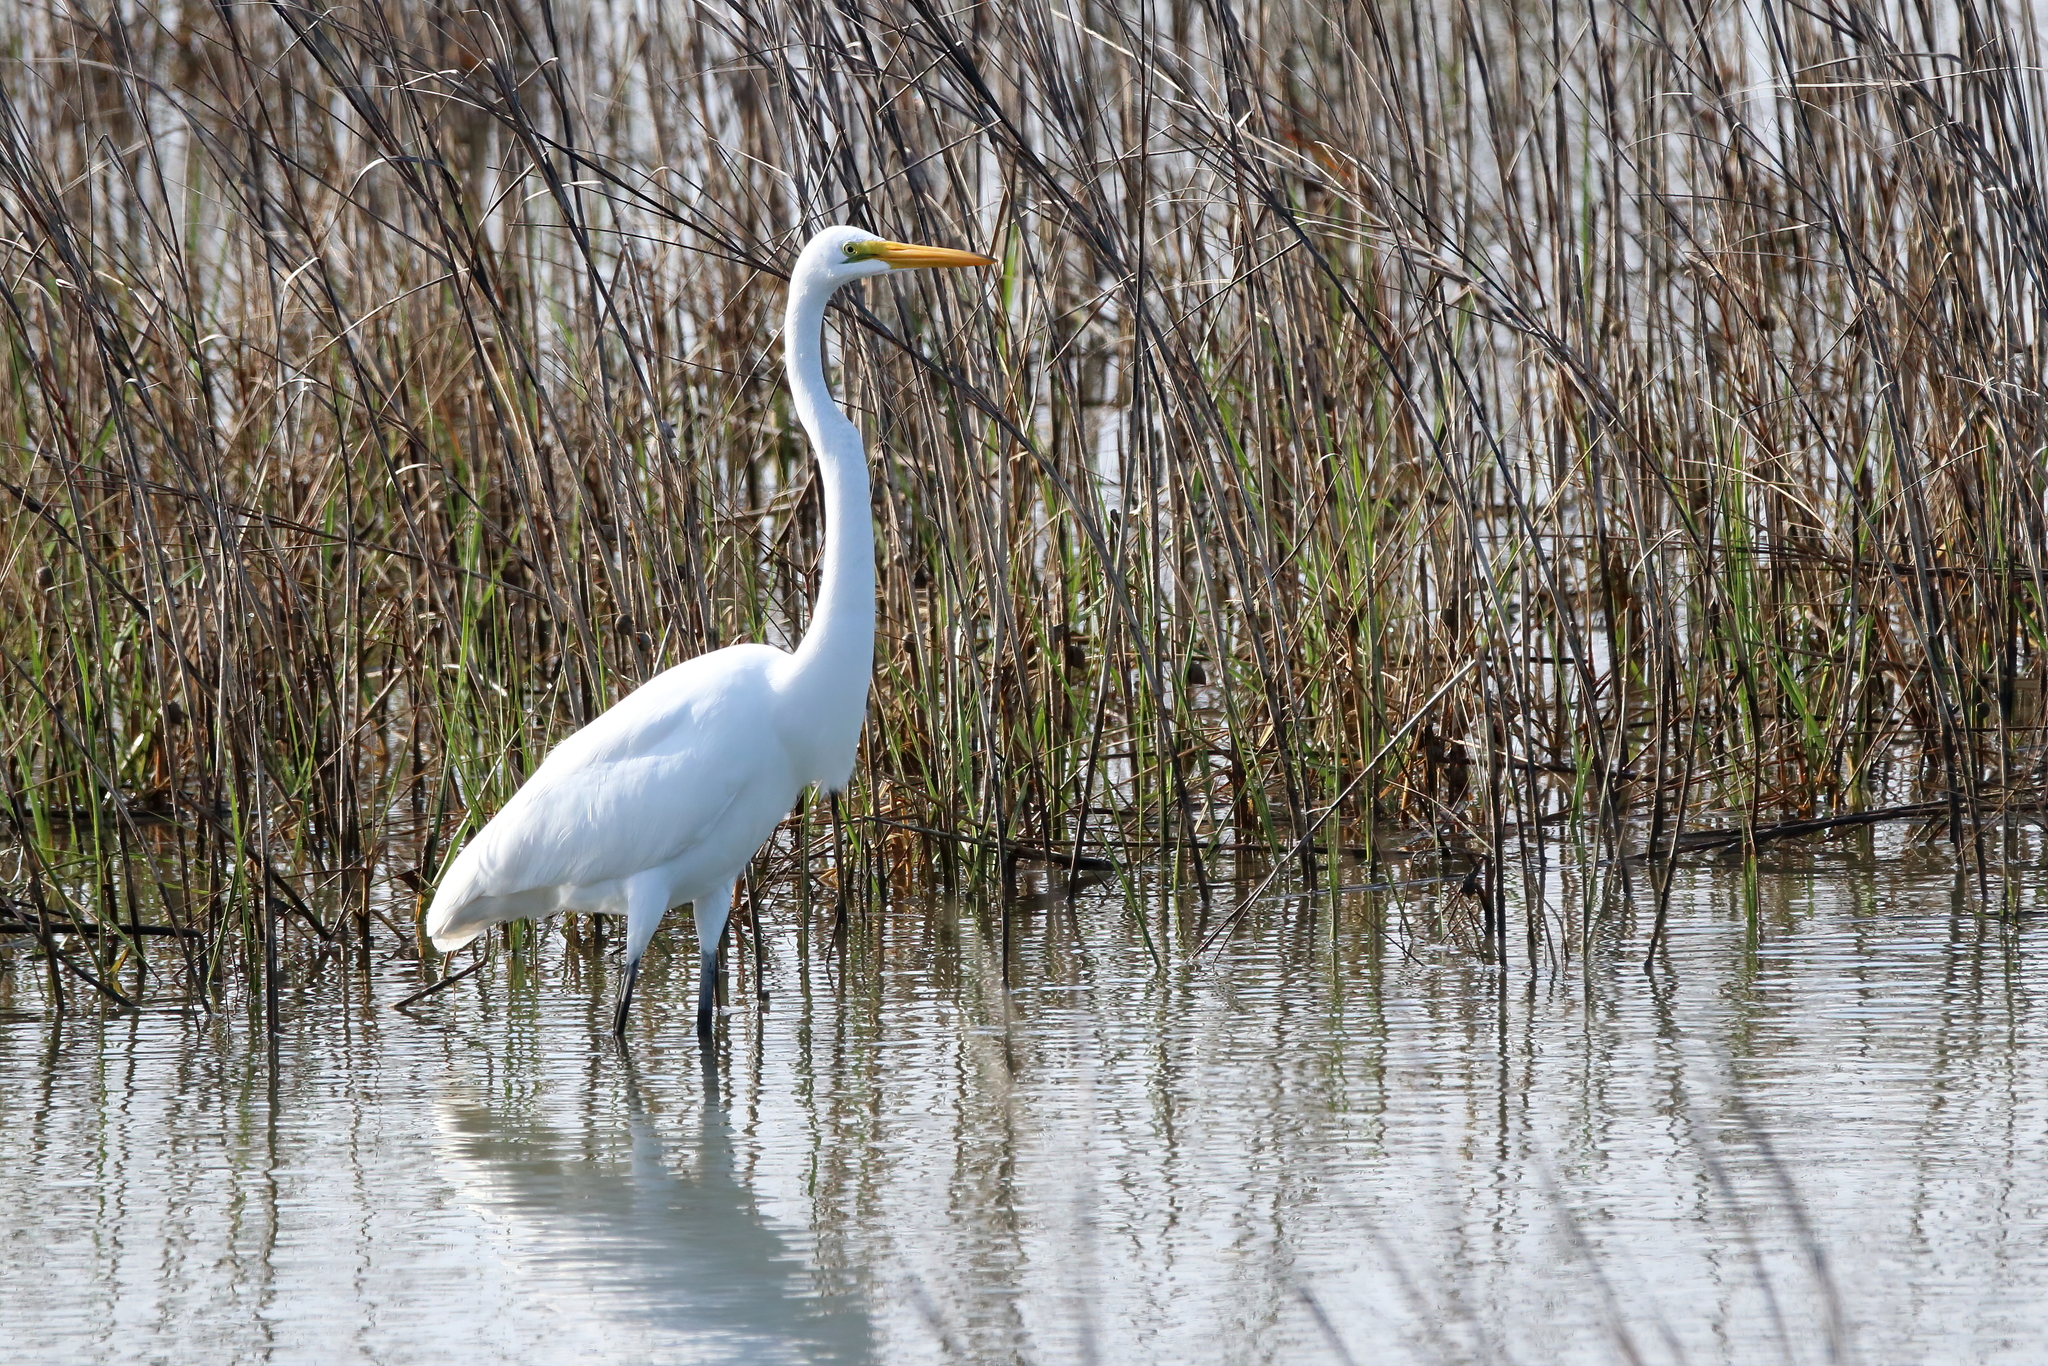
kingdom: Animalia
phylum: Chordata
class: Aves
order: Pelecaniformes
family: Ardeidae
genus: Ardea
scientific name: Ardea alba
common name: Great egret
